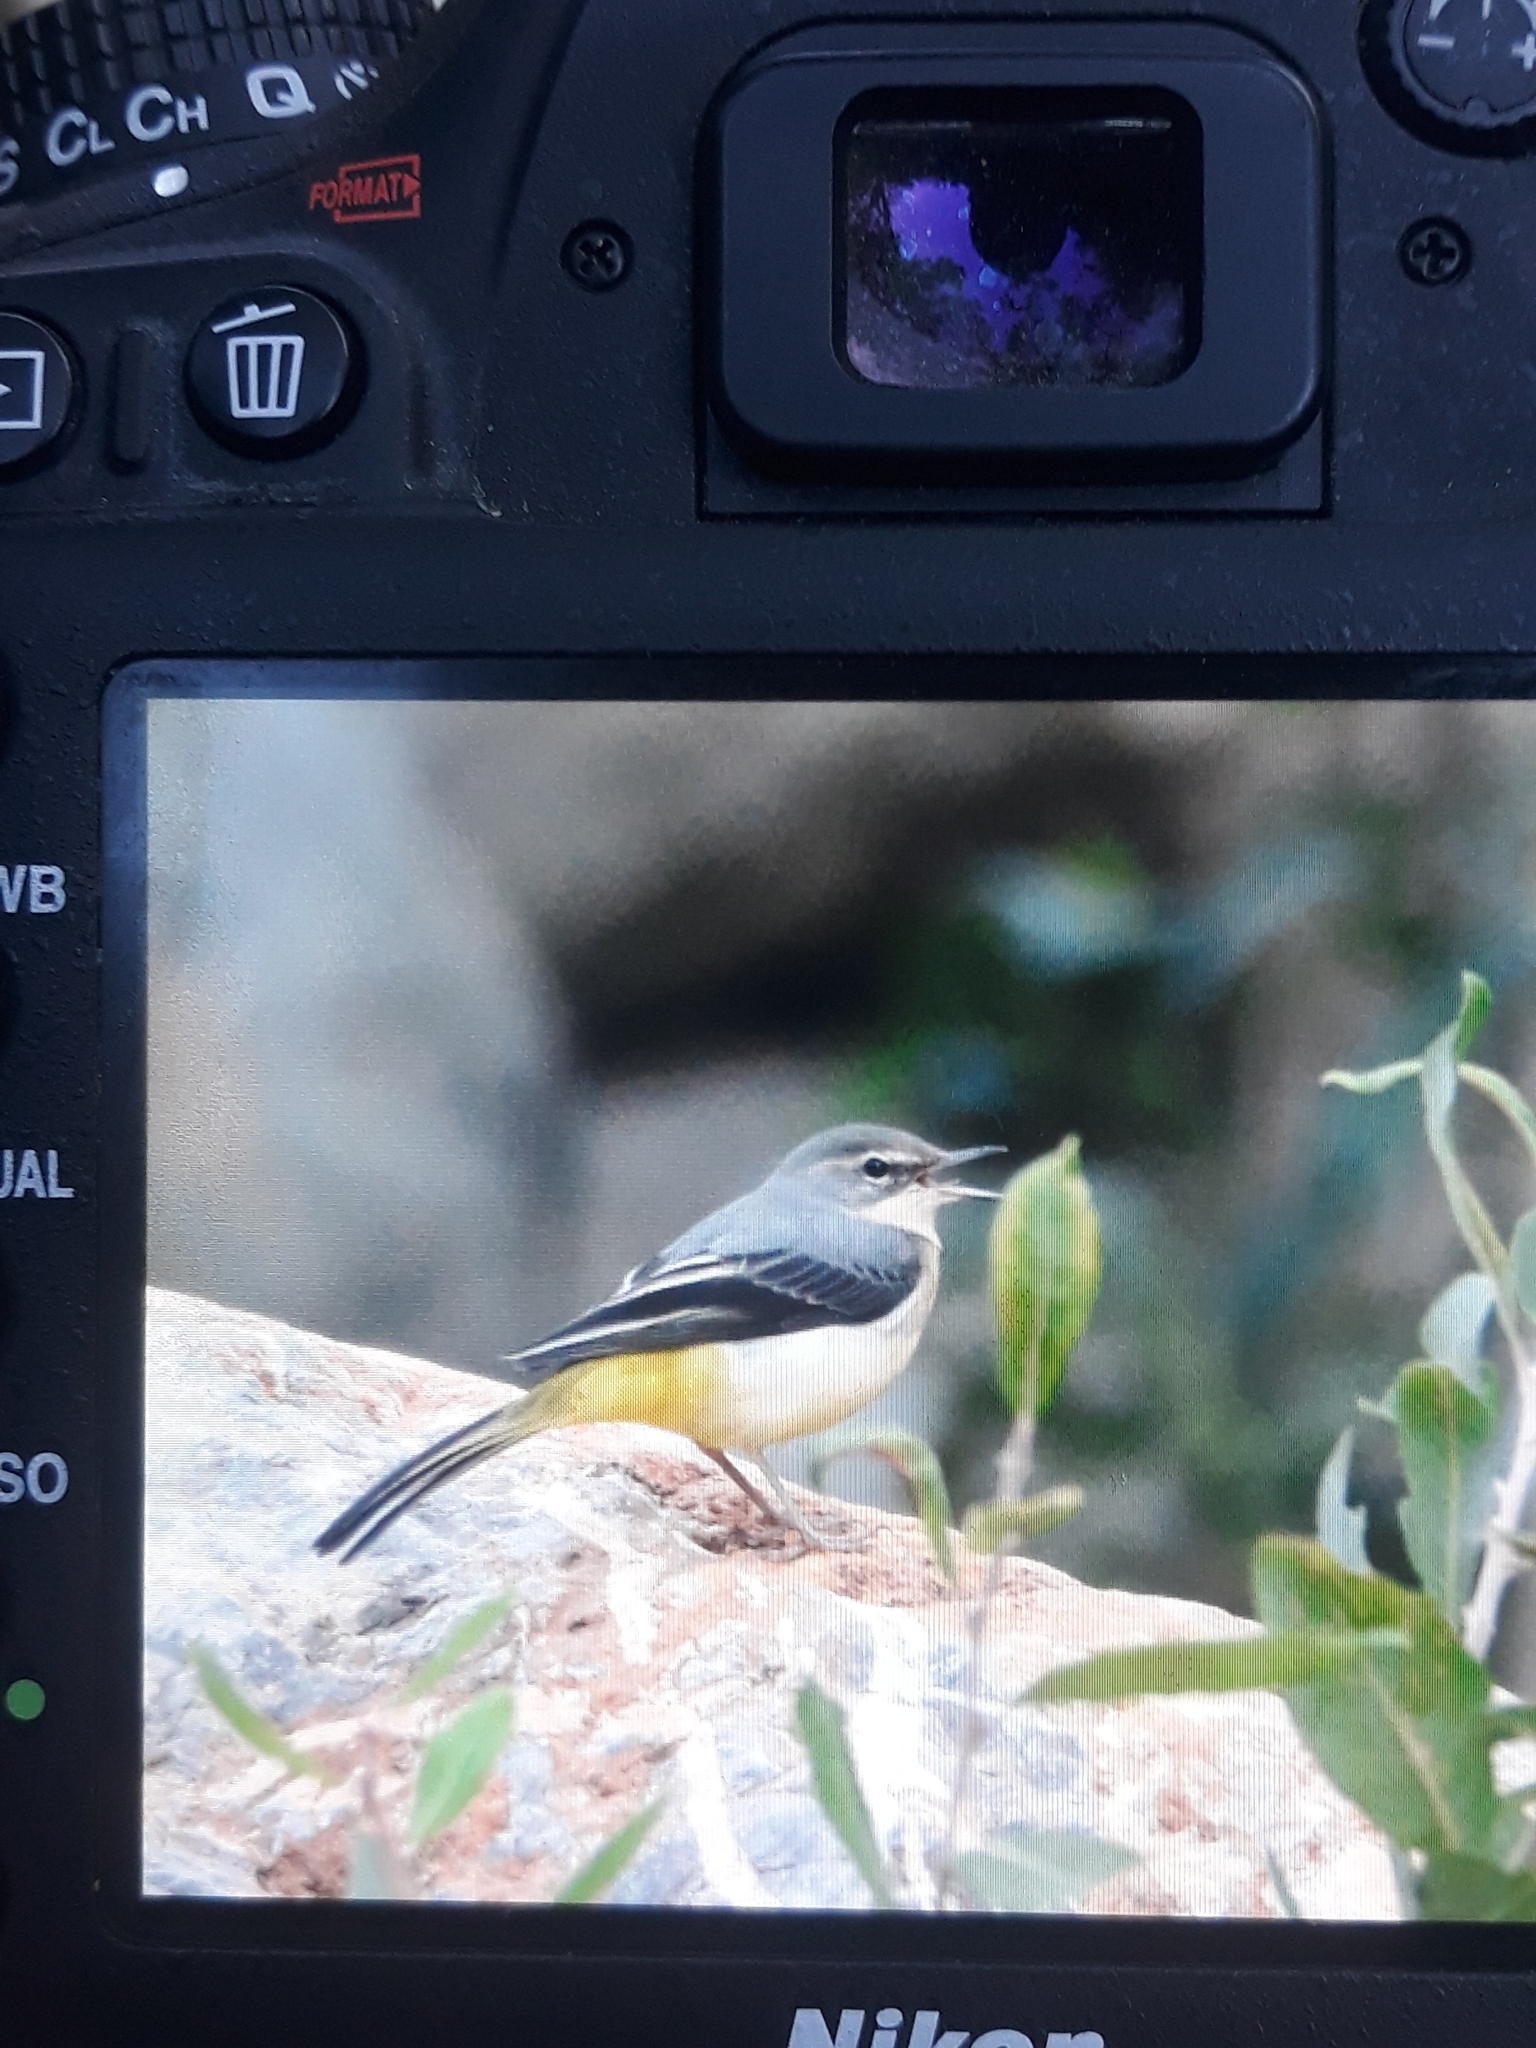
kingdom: Animalia
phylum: Chordata
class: Aves
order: Passeriformes
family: Motacillidae
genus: Motacilla
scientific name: Motacilla cinerea
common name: Grey wagtail
